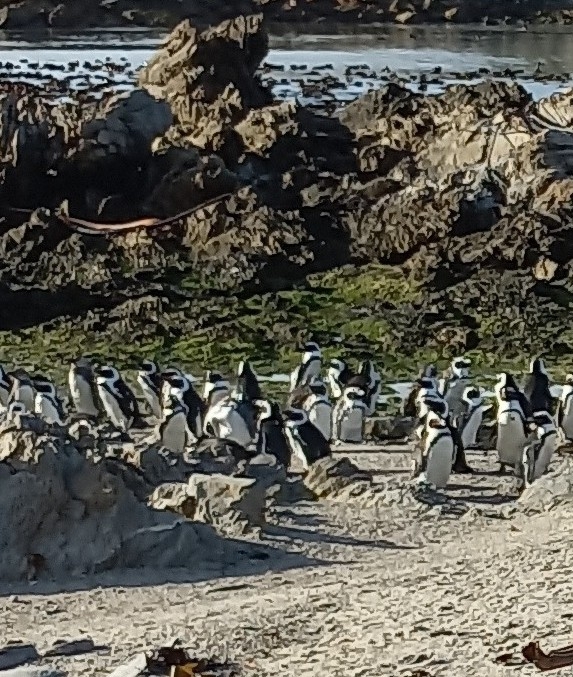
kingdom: Animalia
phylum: Chordata
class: Aves
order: Sphenisciformes
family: Spheniscidae
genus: Spheniscus
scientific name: Spheniscus demersus
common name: African penguin
